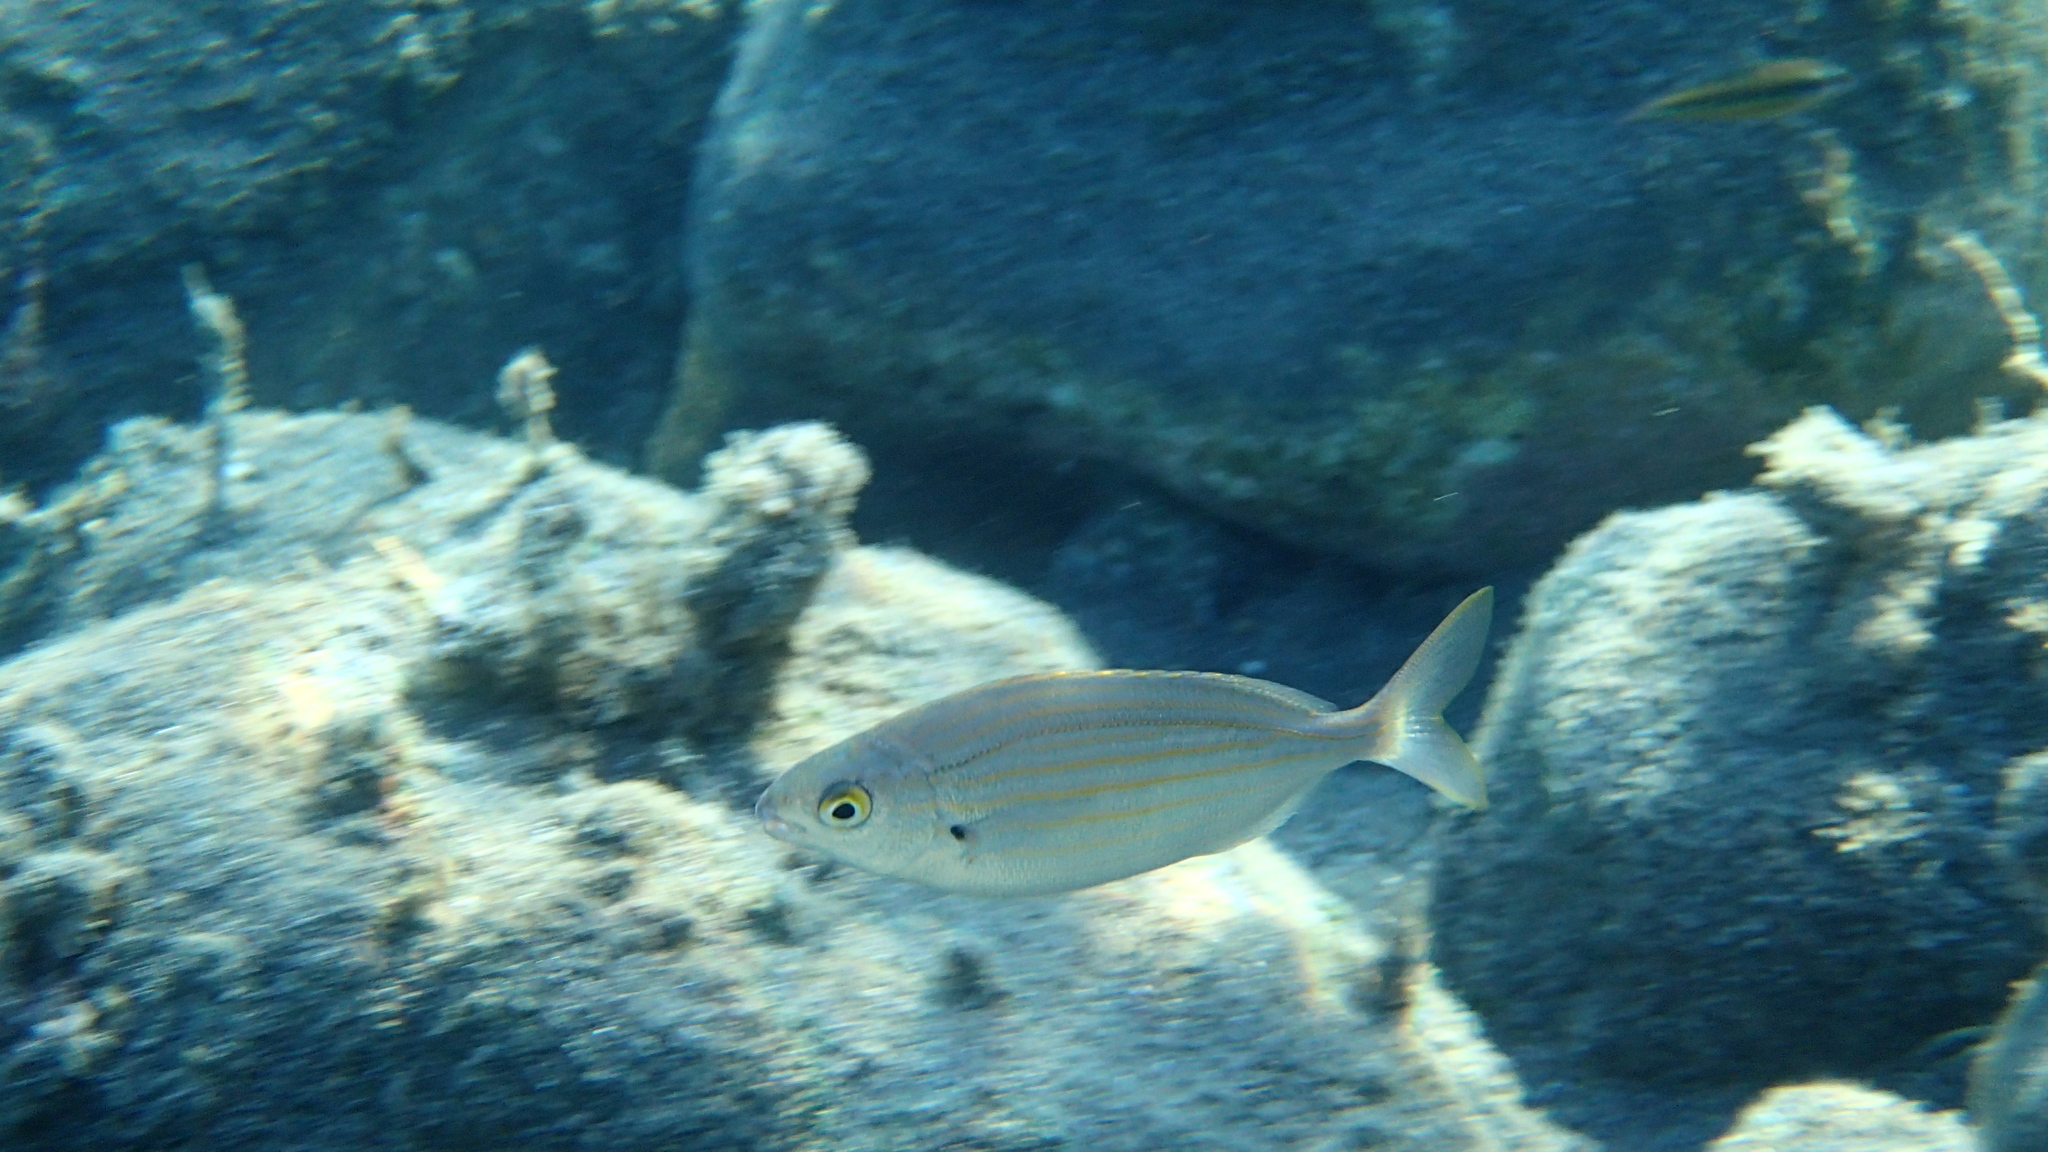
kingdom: Animalia
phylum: Chordata
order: Perciformes
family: Sparidae
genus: Sarpa
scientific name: Sarpa salpa
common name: Salema
